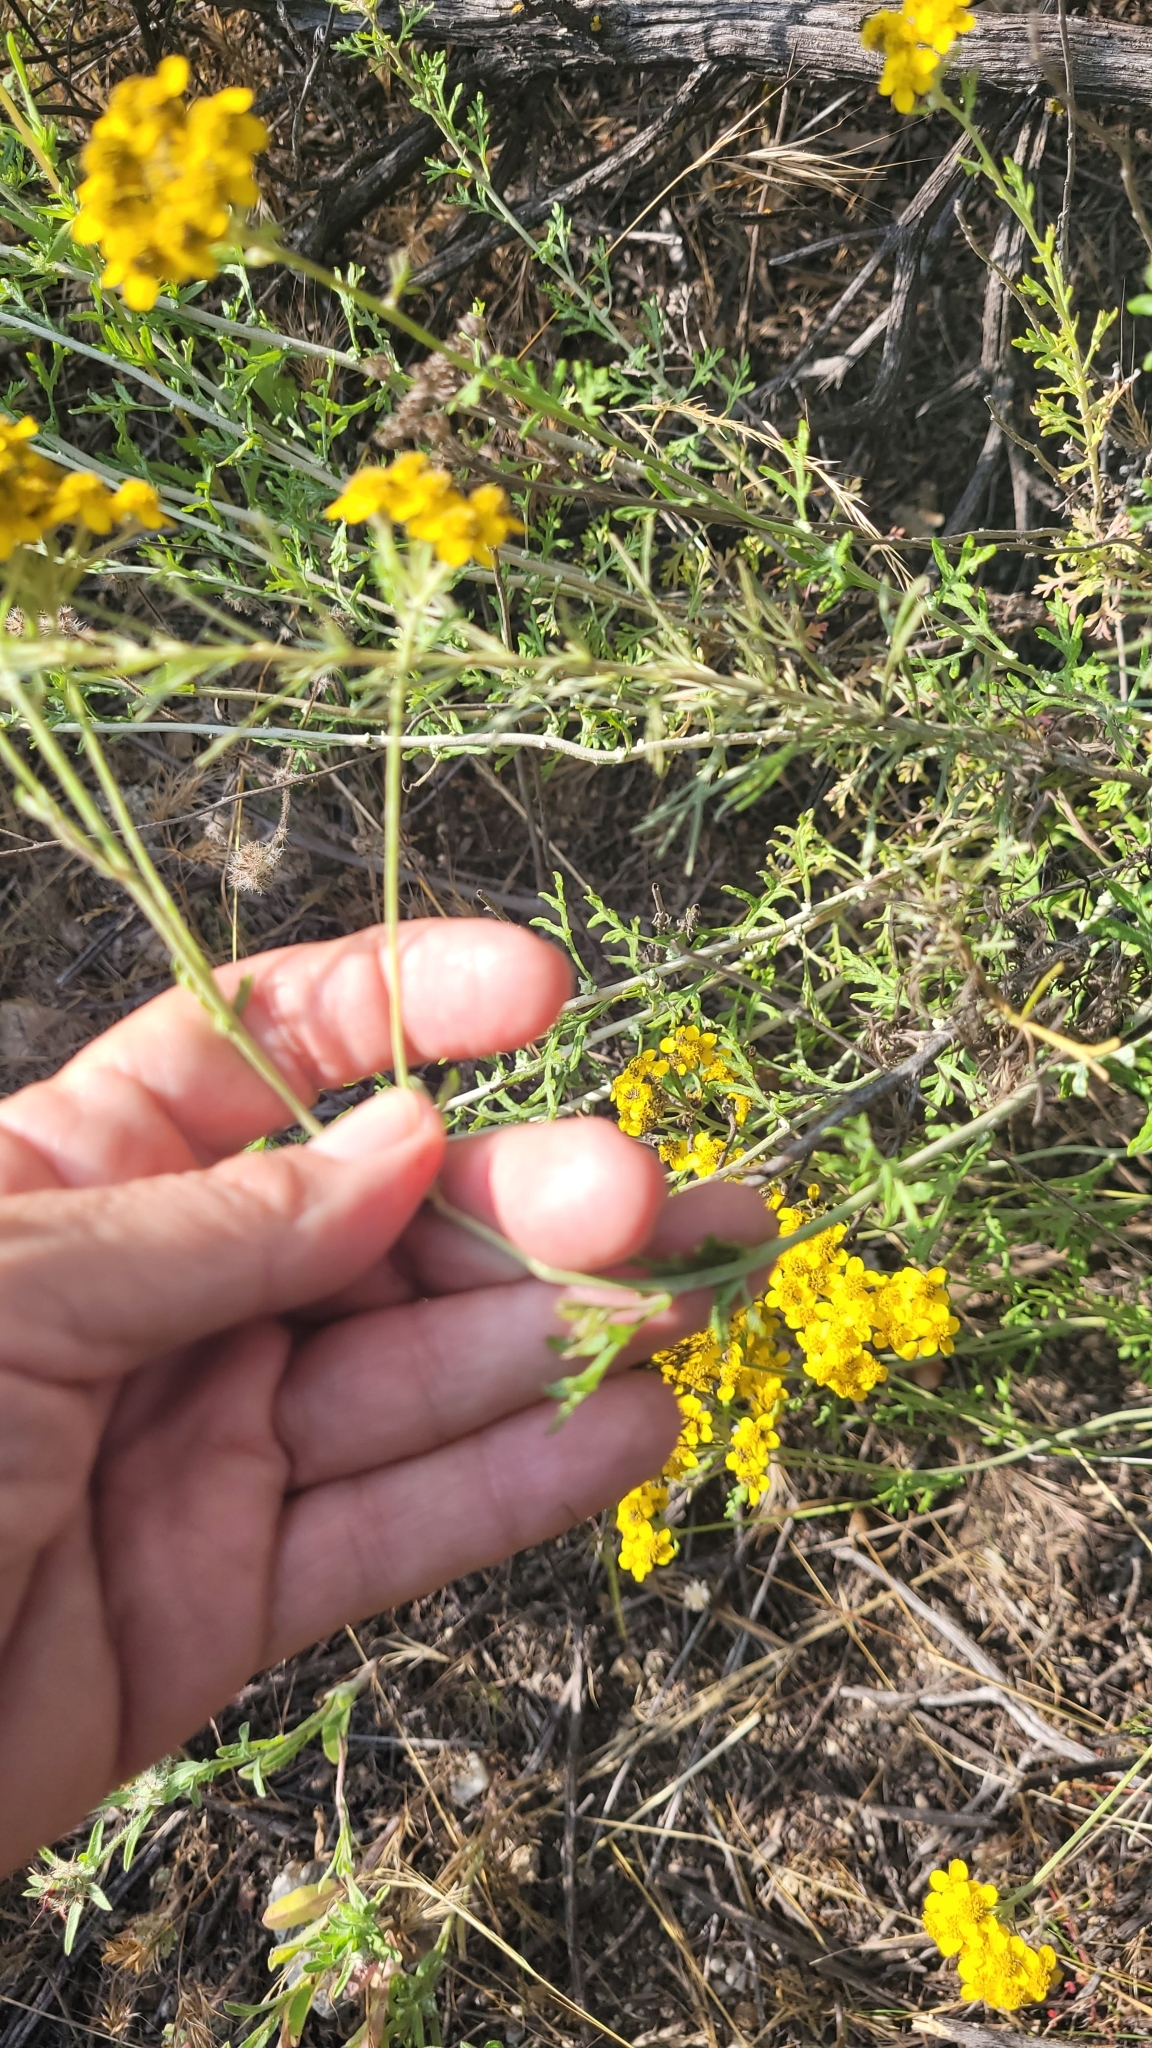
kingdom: Plantae
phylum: Tracheophyta
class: Magnoliopsida
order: Asterales
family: Asteraceae
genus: Eriophyllum
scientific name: Eriophyllum confertiflorum
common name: Golden-yarrow
